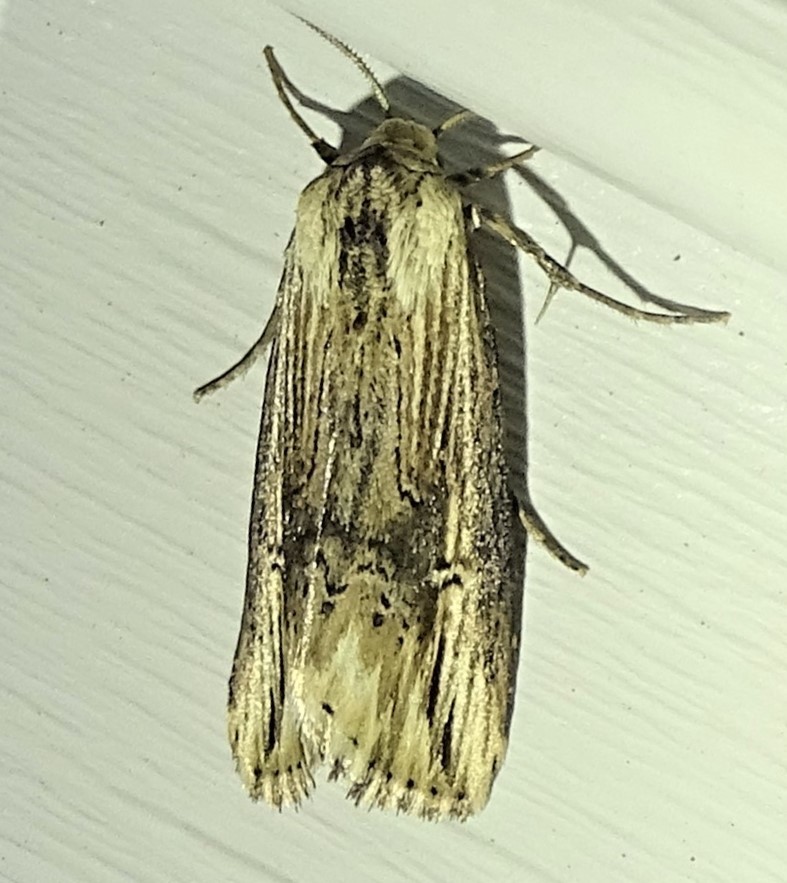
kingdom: Animalia
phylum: Arthropoda
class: Insecta
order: Lepidoptera
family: Noctuidae
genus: Crambodes
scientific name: Crambodes talidiformis
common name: Verbena moth
